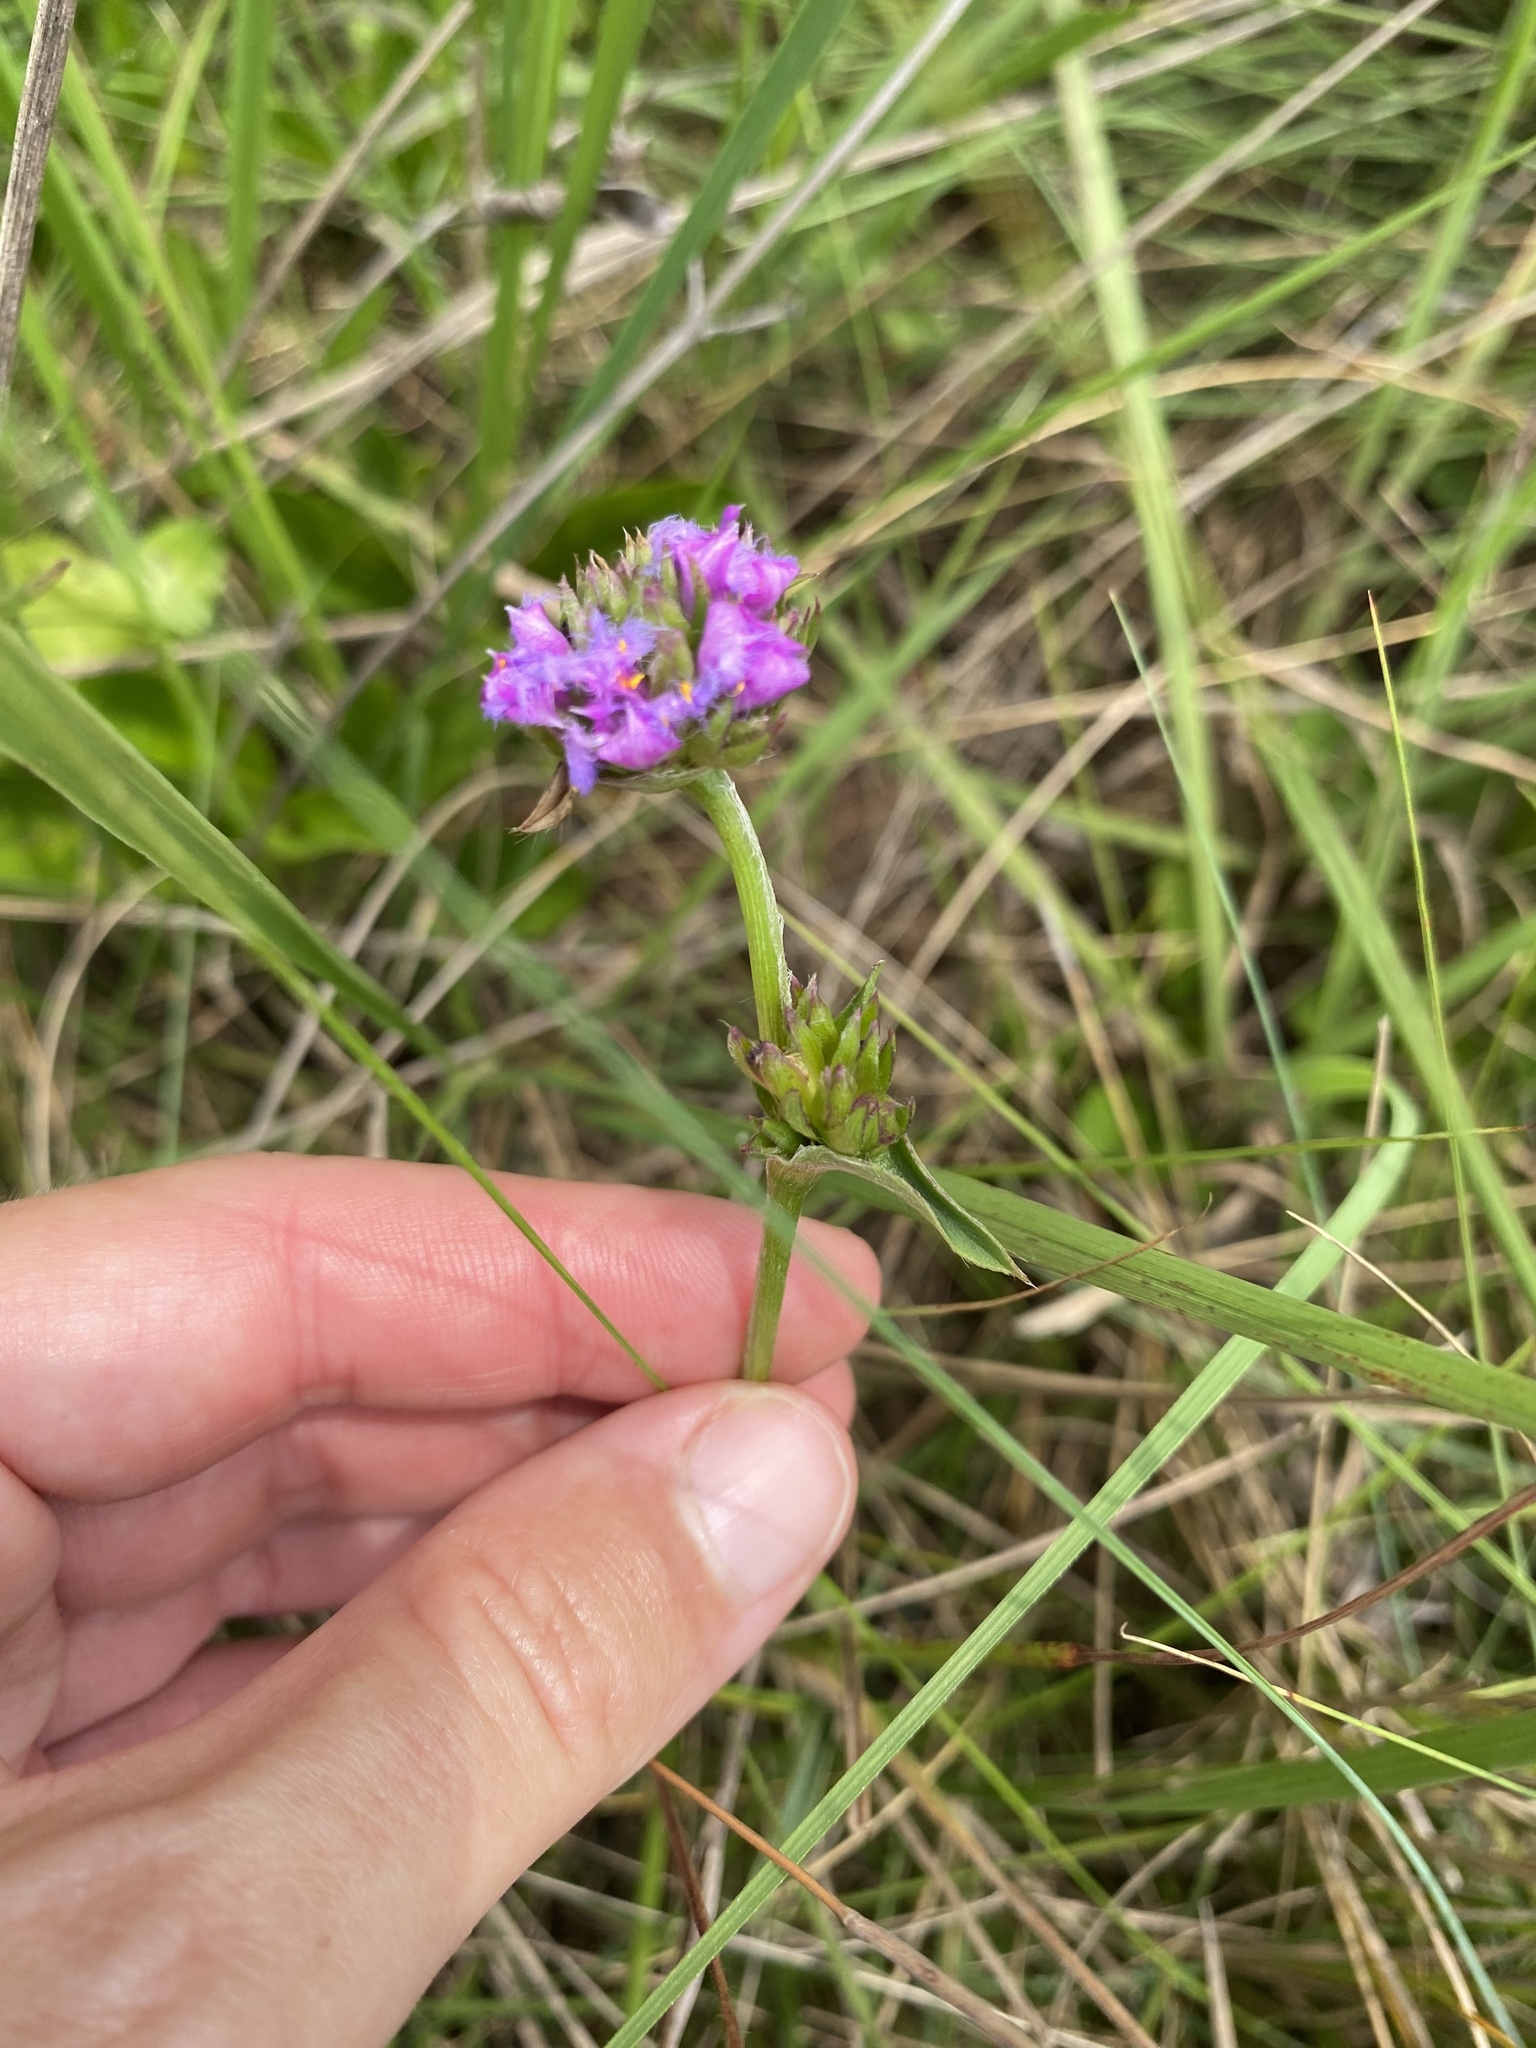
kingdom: Plantae
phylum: Tracheophyta
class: Liliopsida
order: Commelinales
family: Commelinaceae
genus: Cyanotis
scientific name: Cyanotis speciosa
